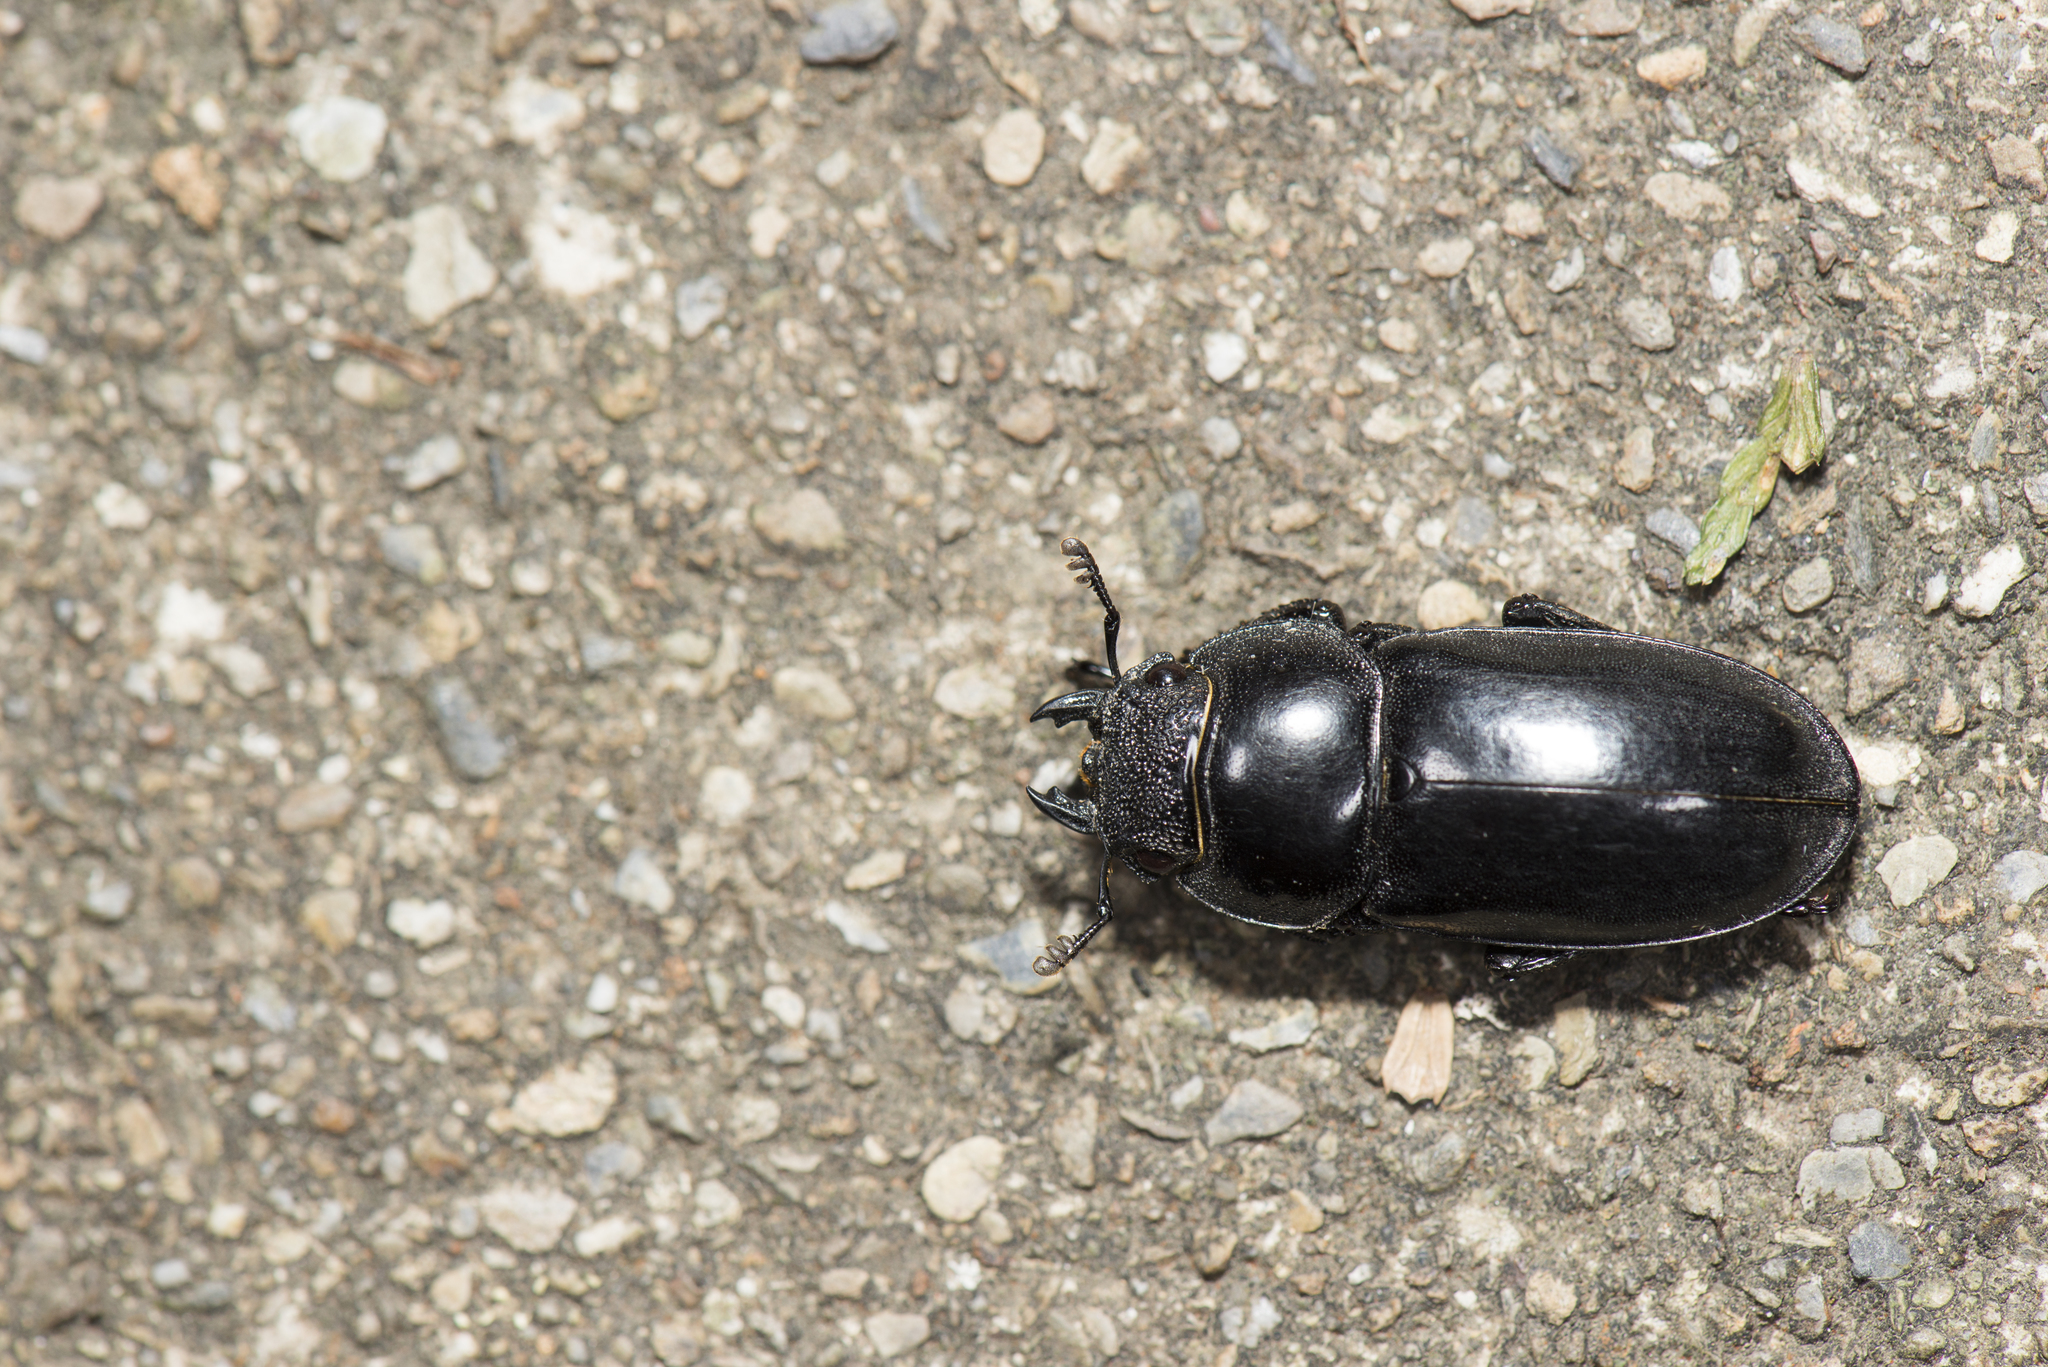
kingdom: Animalia
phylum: Arthropoda
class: Insecta
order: Coleoptera
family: Lucanidae
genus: Serrognathus
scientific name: Serrognathus titanus
